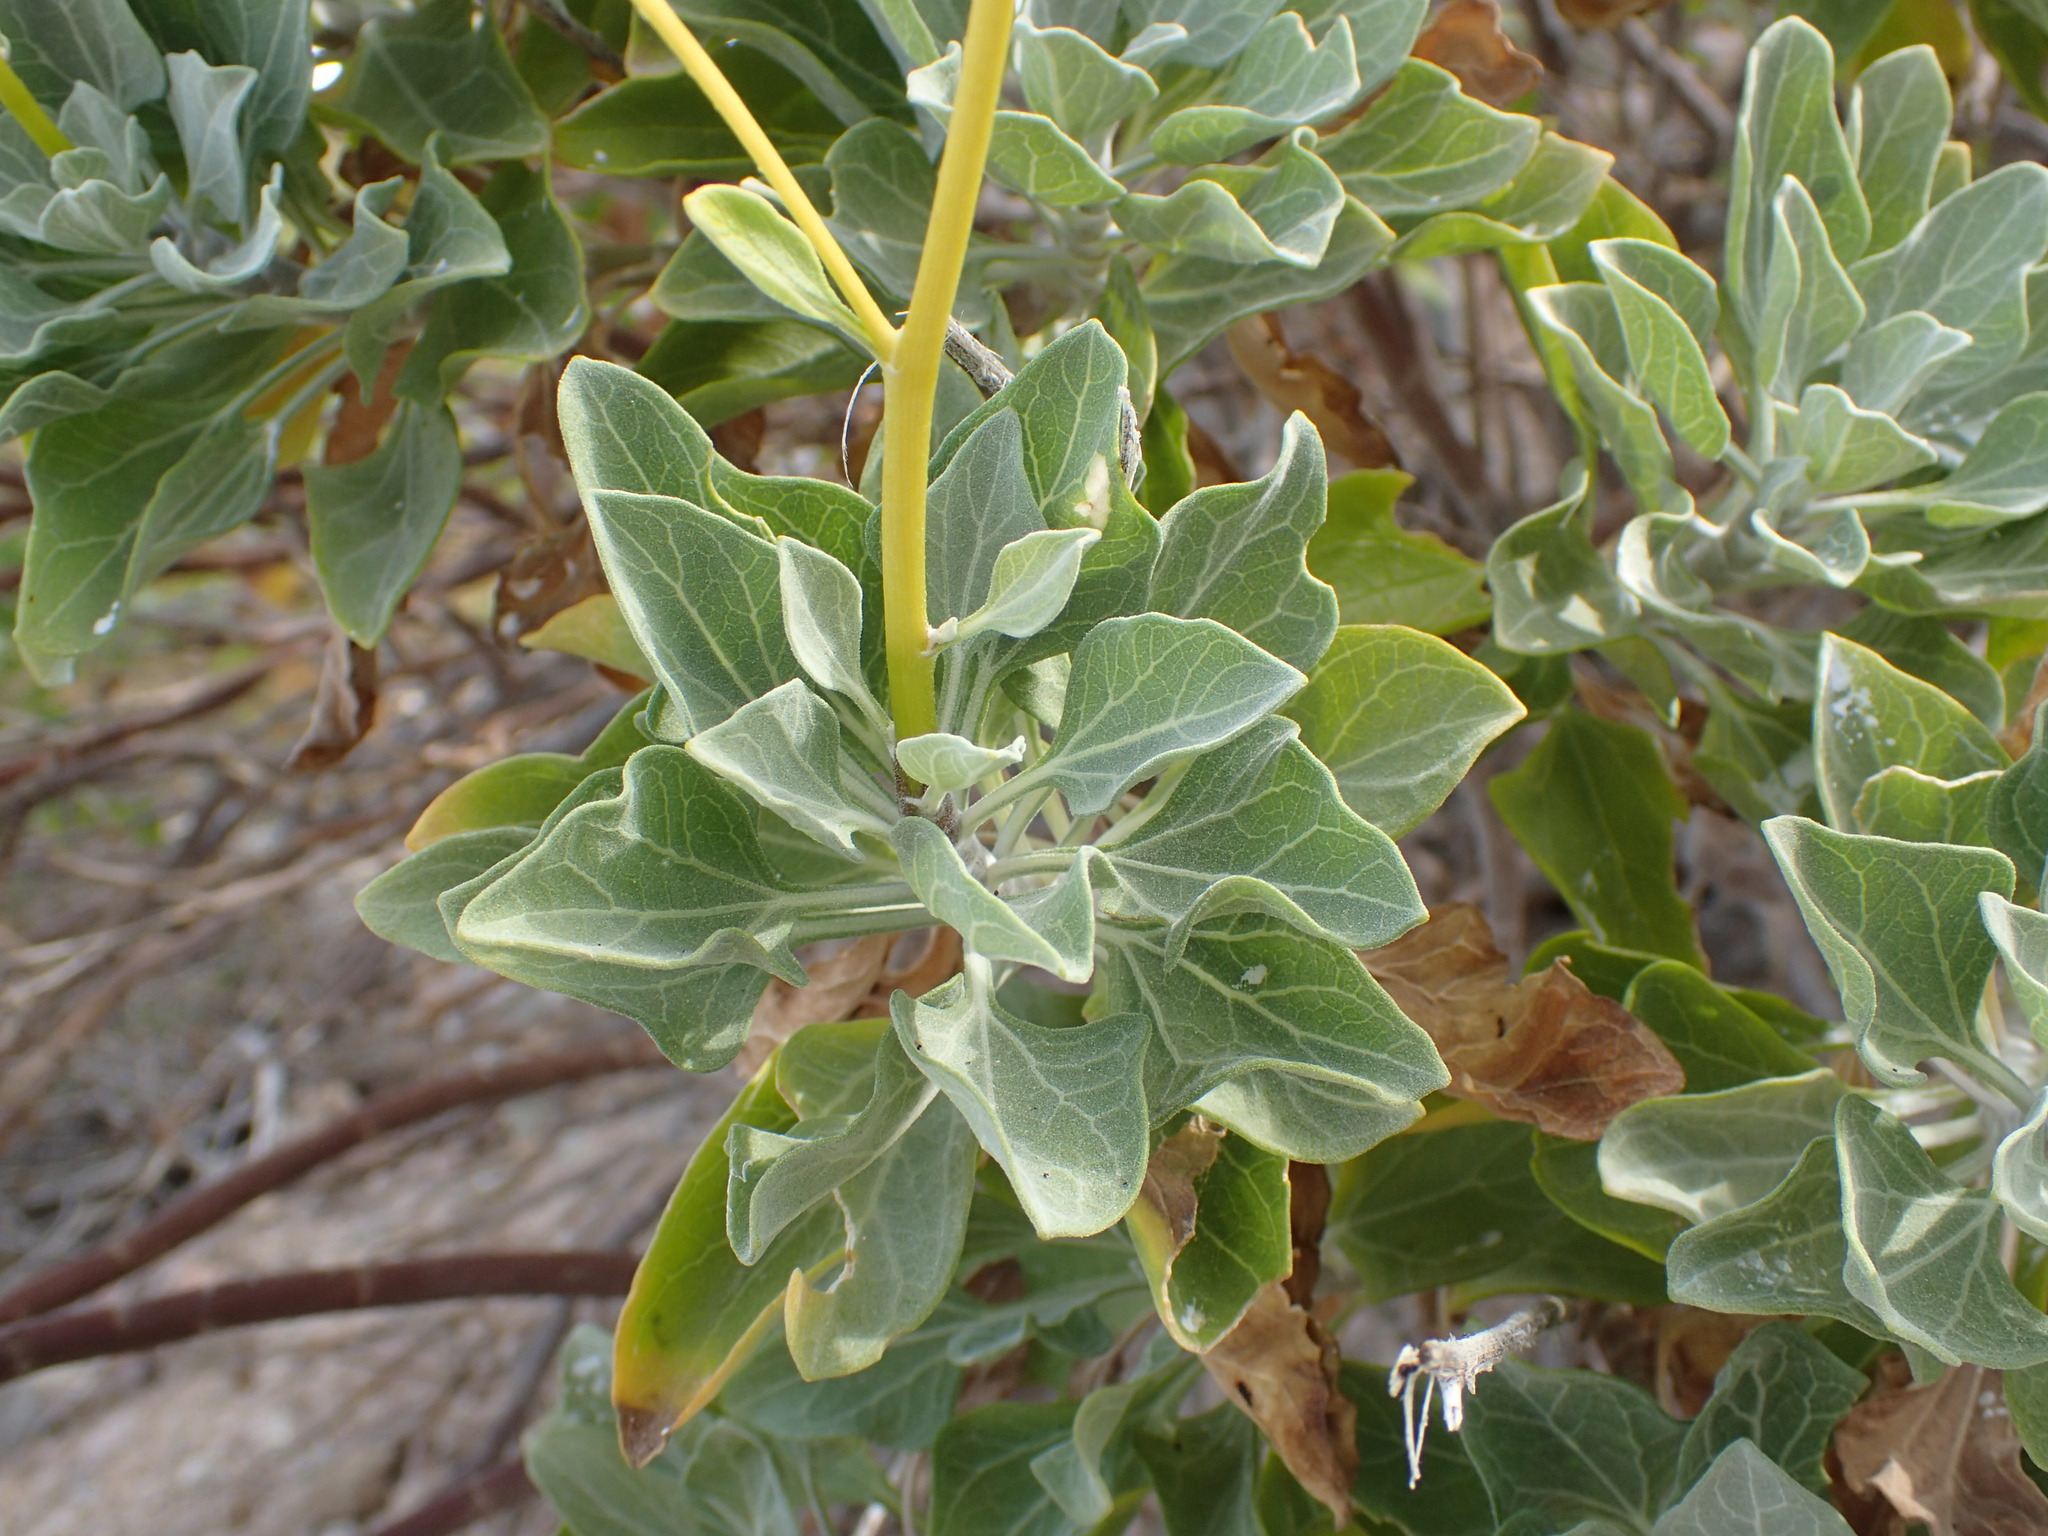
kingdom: Plantae
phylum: Tracheophyta
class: Magnoliopsida
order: Asterales
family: Asteraceae
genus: Encelia
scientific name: Encelia farinosa
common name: Brittlebush
